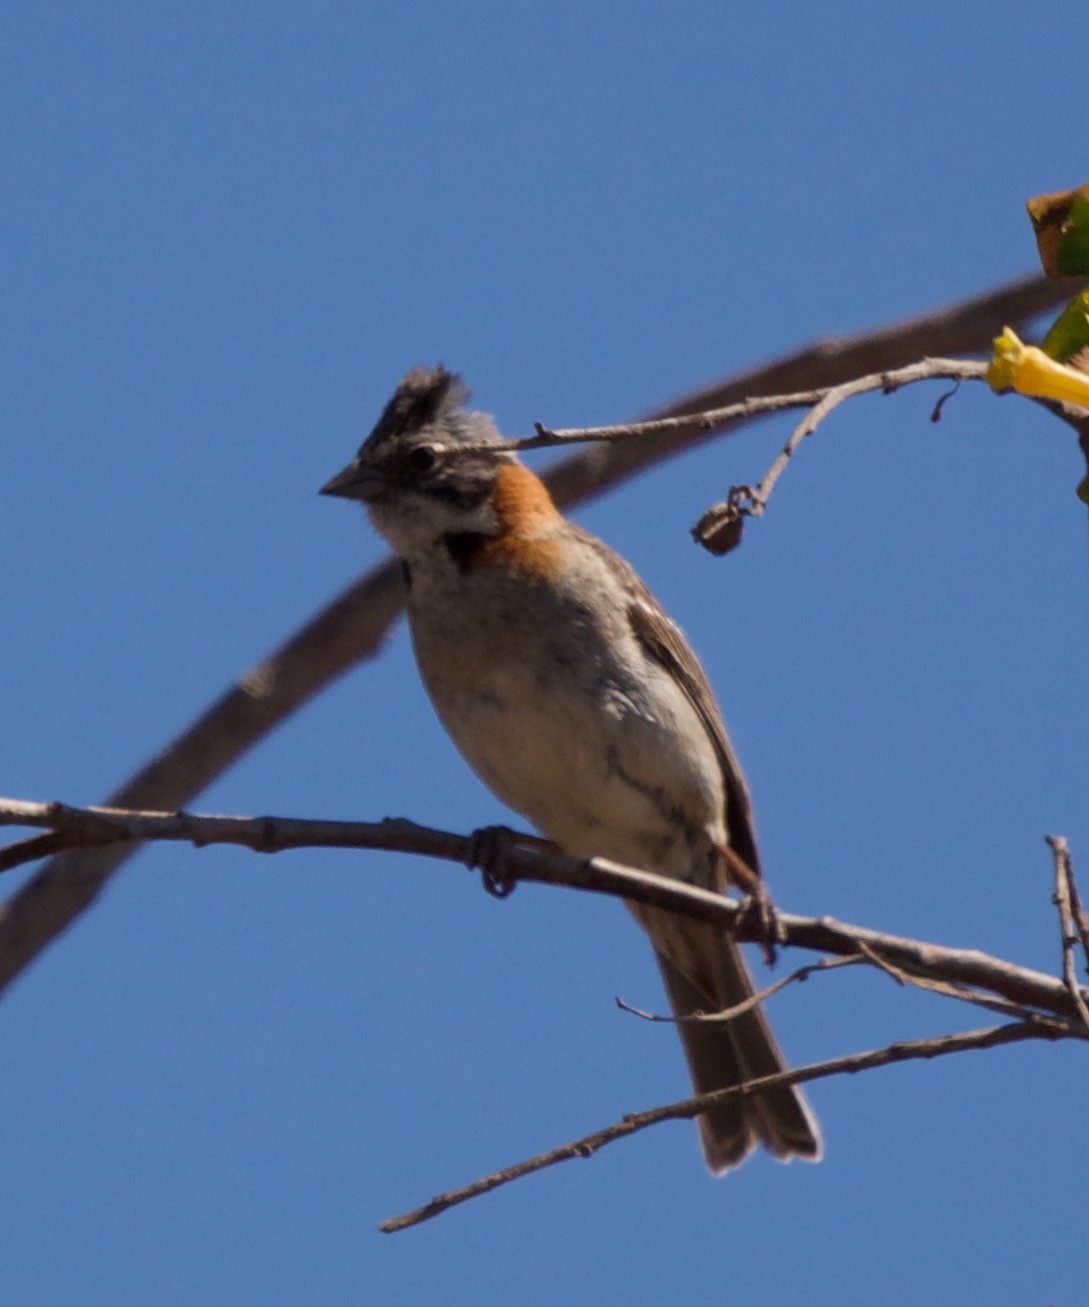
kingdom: Animalia
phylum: Chordata
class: Aves
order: Passeriformes
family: Passerellidae
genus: Zonotrichia
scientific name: Zonotrichia capensis
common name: Rufous-collared sparrow
